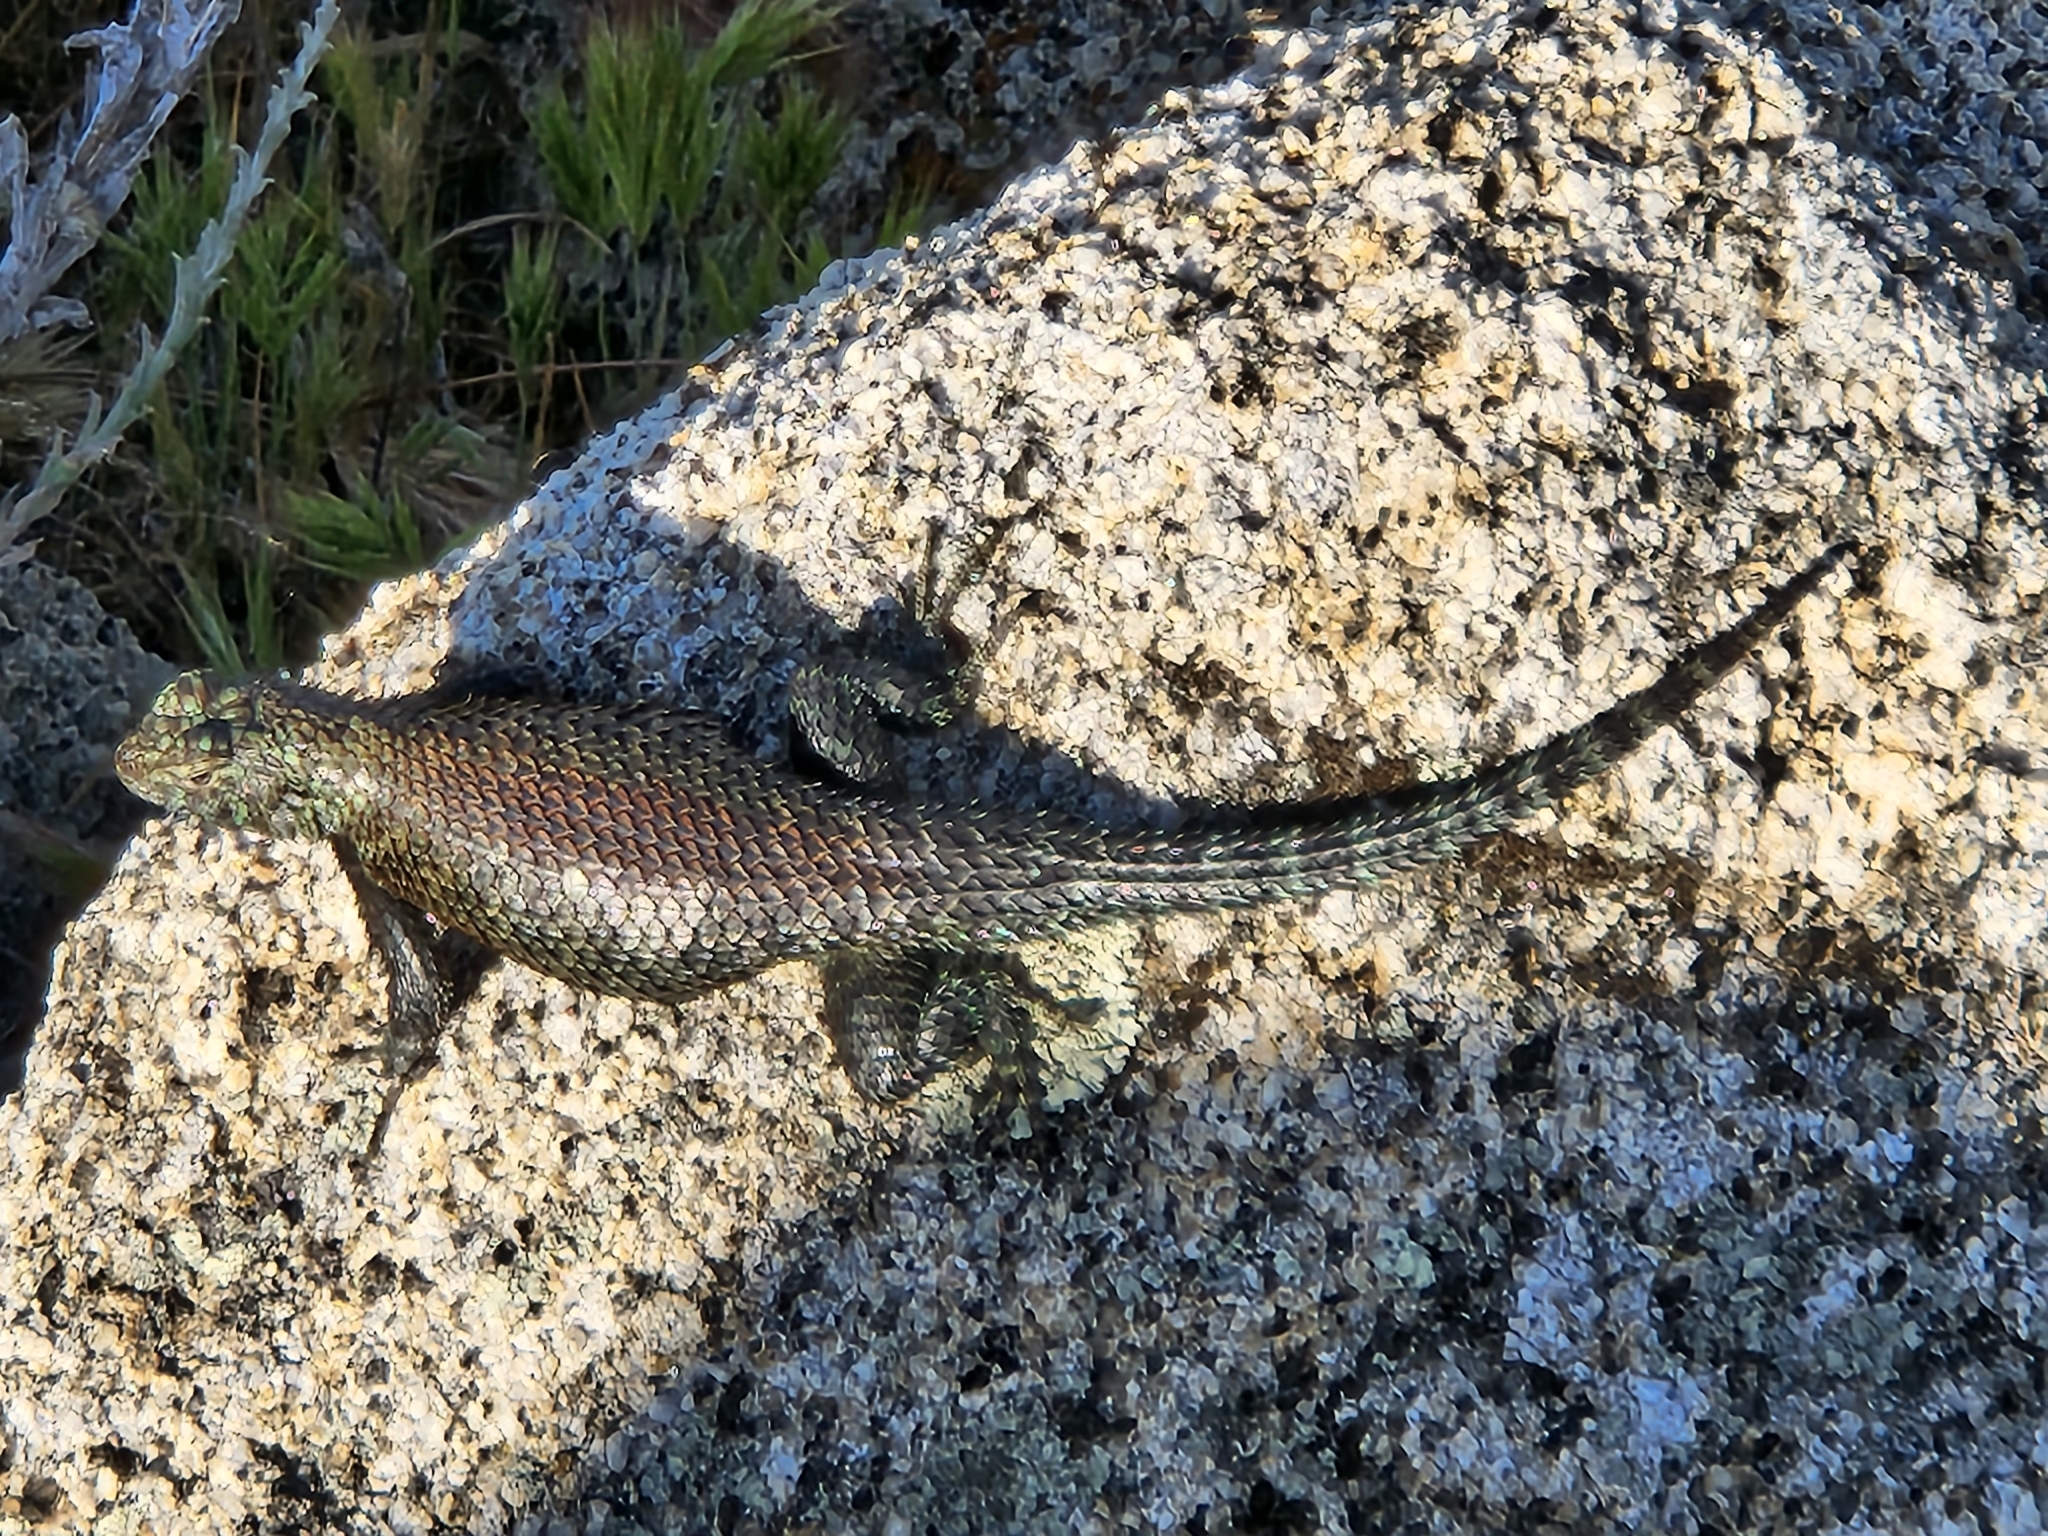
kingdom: Animalia
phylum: Chordata
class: Squamata
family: Phrynosomatidae
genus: Sceloporus
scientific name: Sceloporus orcutti
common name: Granite spiny lizard
